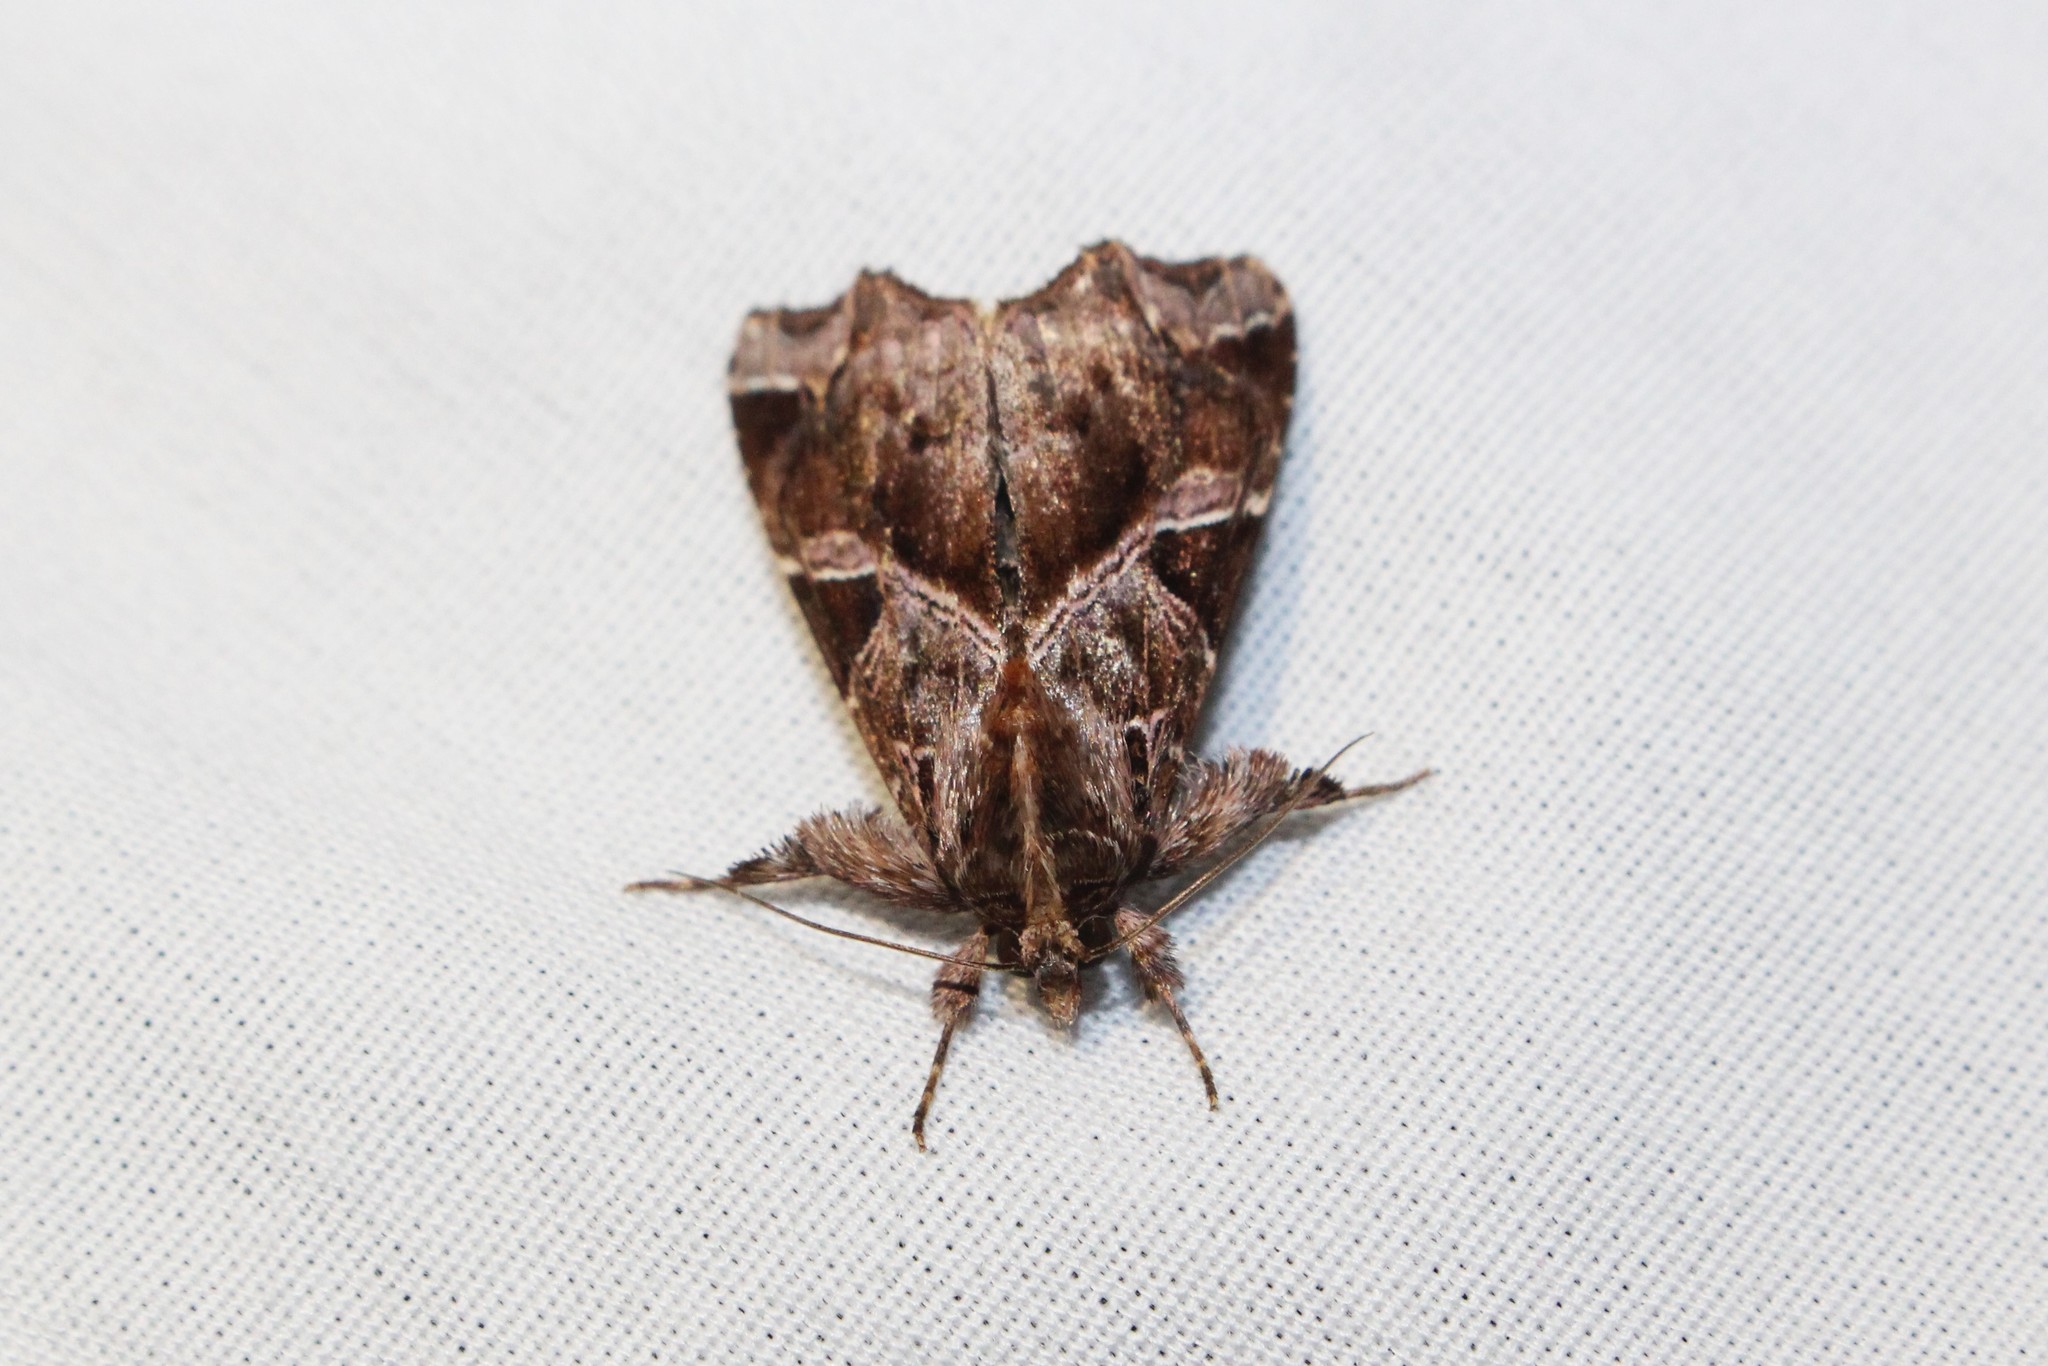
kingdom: Animalia
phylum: Arthropoda
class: Insecta
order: Lepidoptera
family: Noctuidae
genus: Callopistria
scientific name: Callopistria floridensis
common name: Florida fern moth
